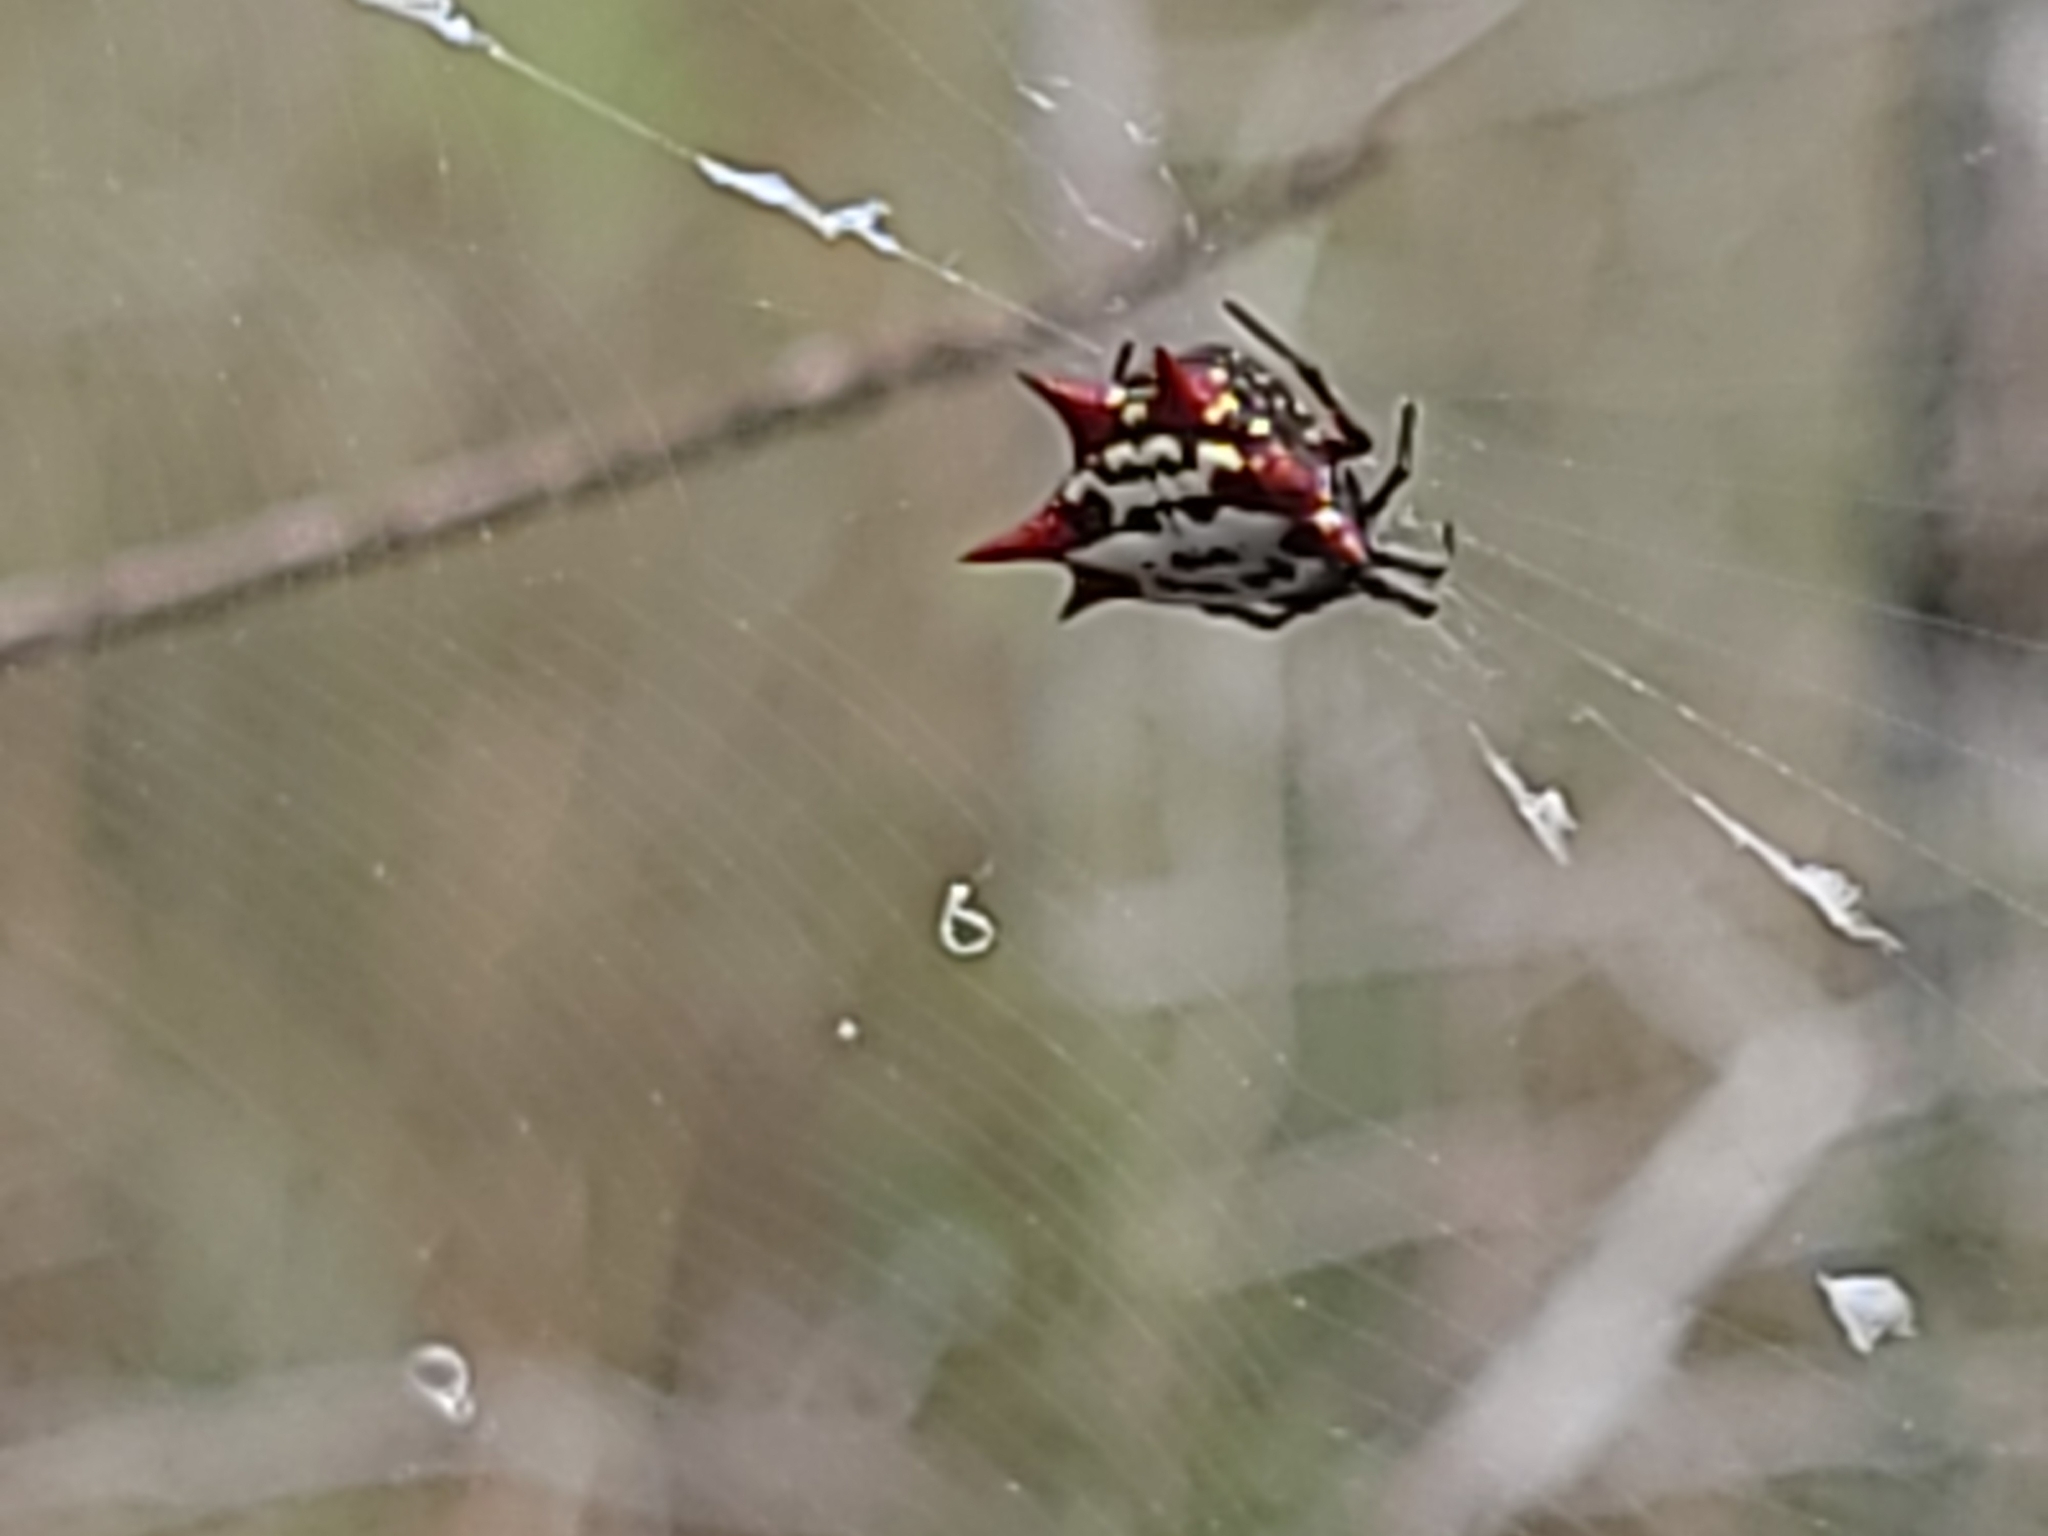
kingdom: Animalia
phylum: Arthropoda
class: Arachnida
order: Araneae
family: Araneidae
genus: Gasteracantha
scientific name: Gasteracantha cancriformis
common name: Orb weavers
